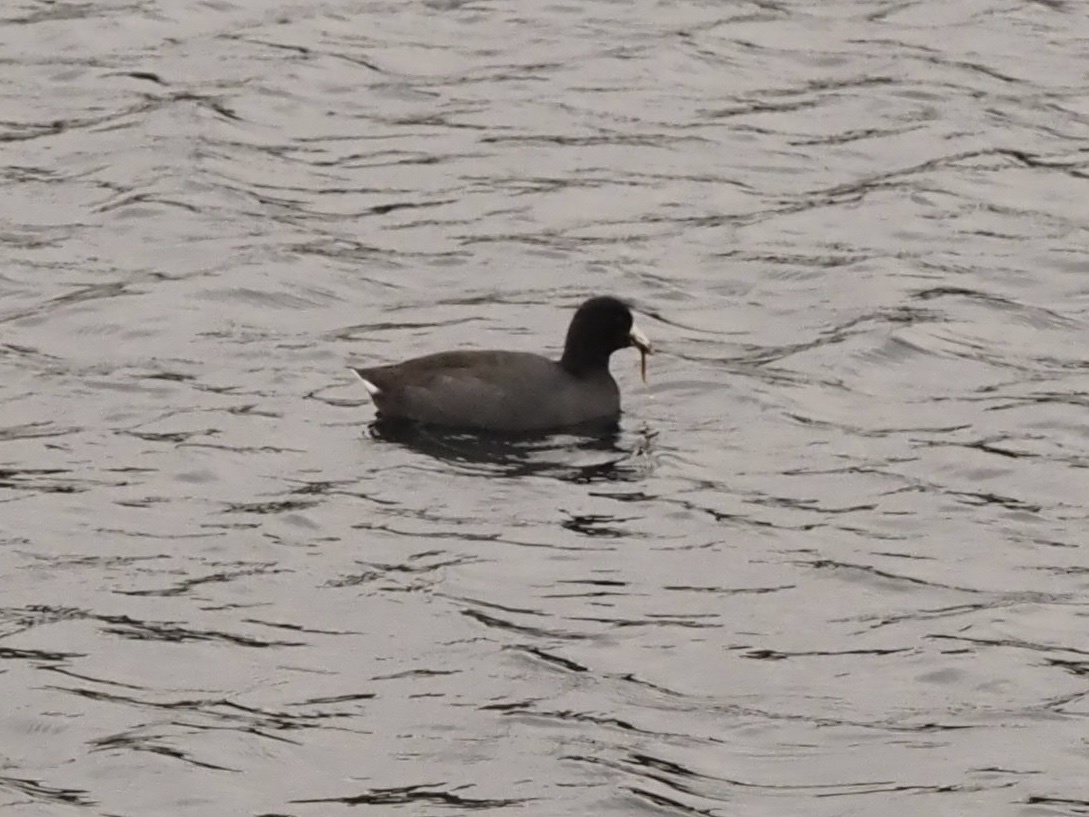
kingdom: Animalia
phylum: Chordata
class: Aves
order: Gruiformes
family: Rallidae
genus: Fulica
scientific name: Fulica americana
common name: American coot
